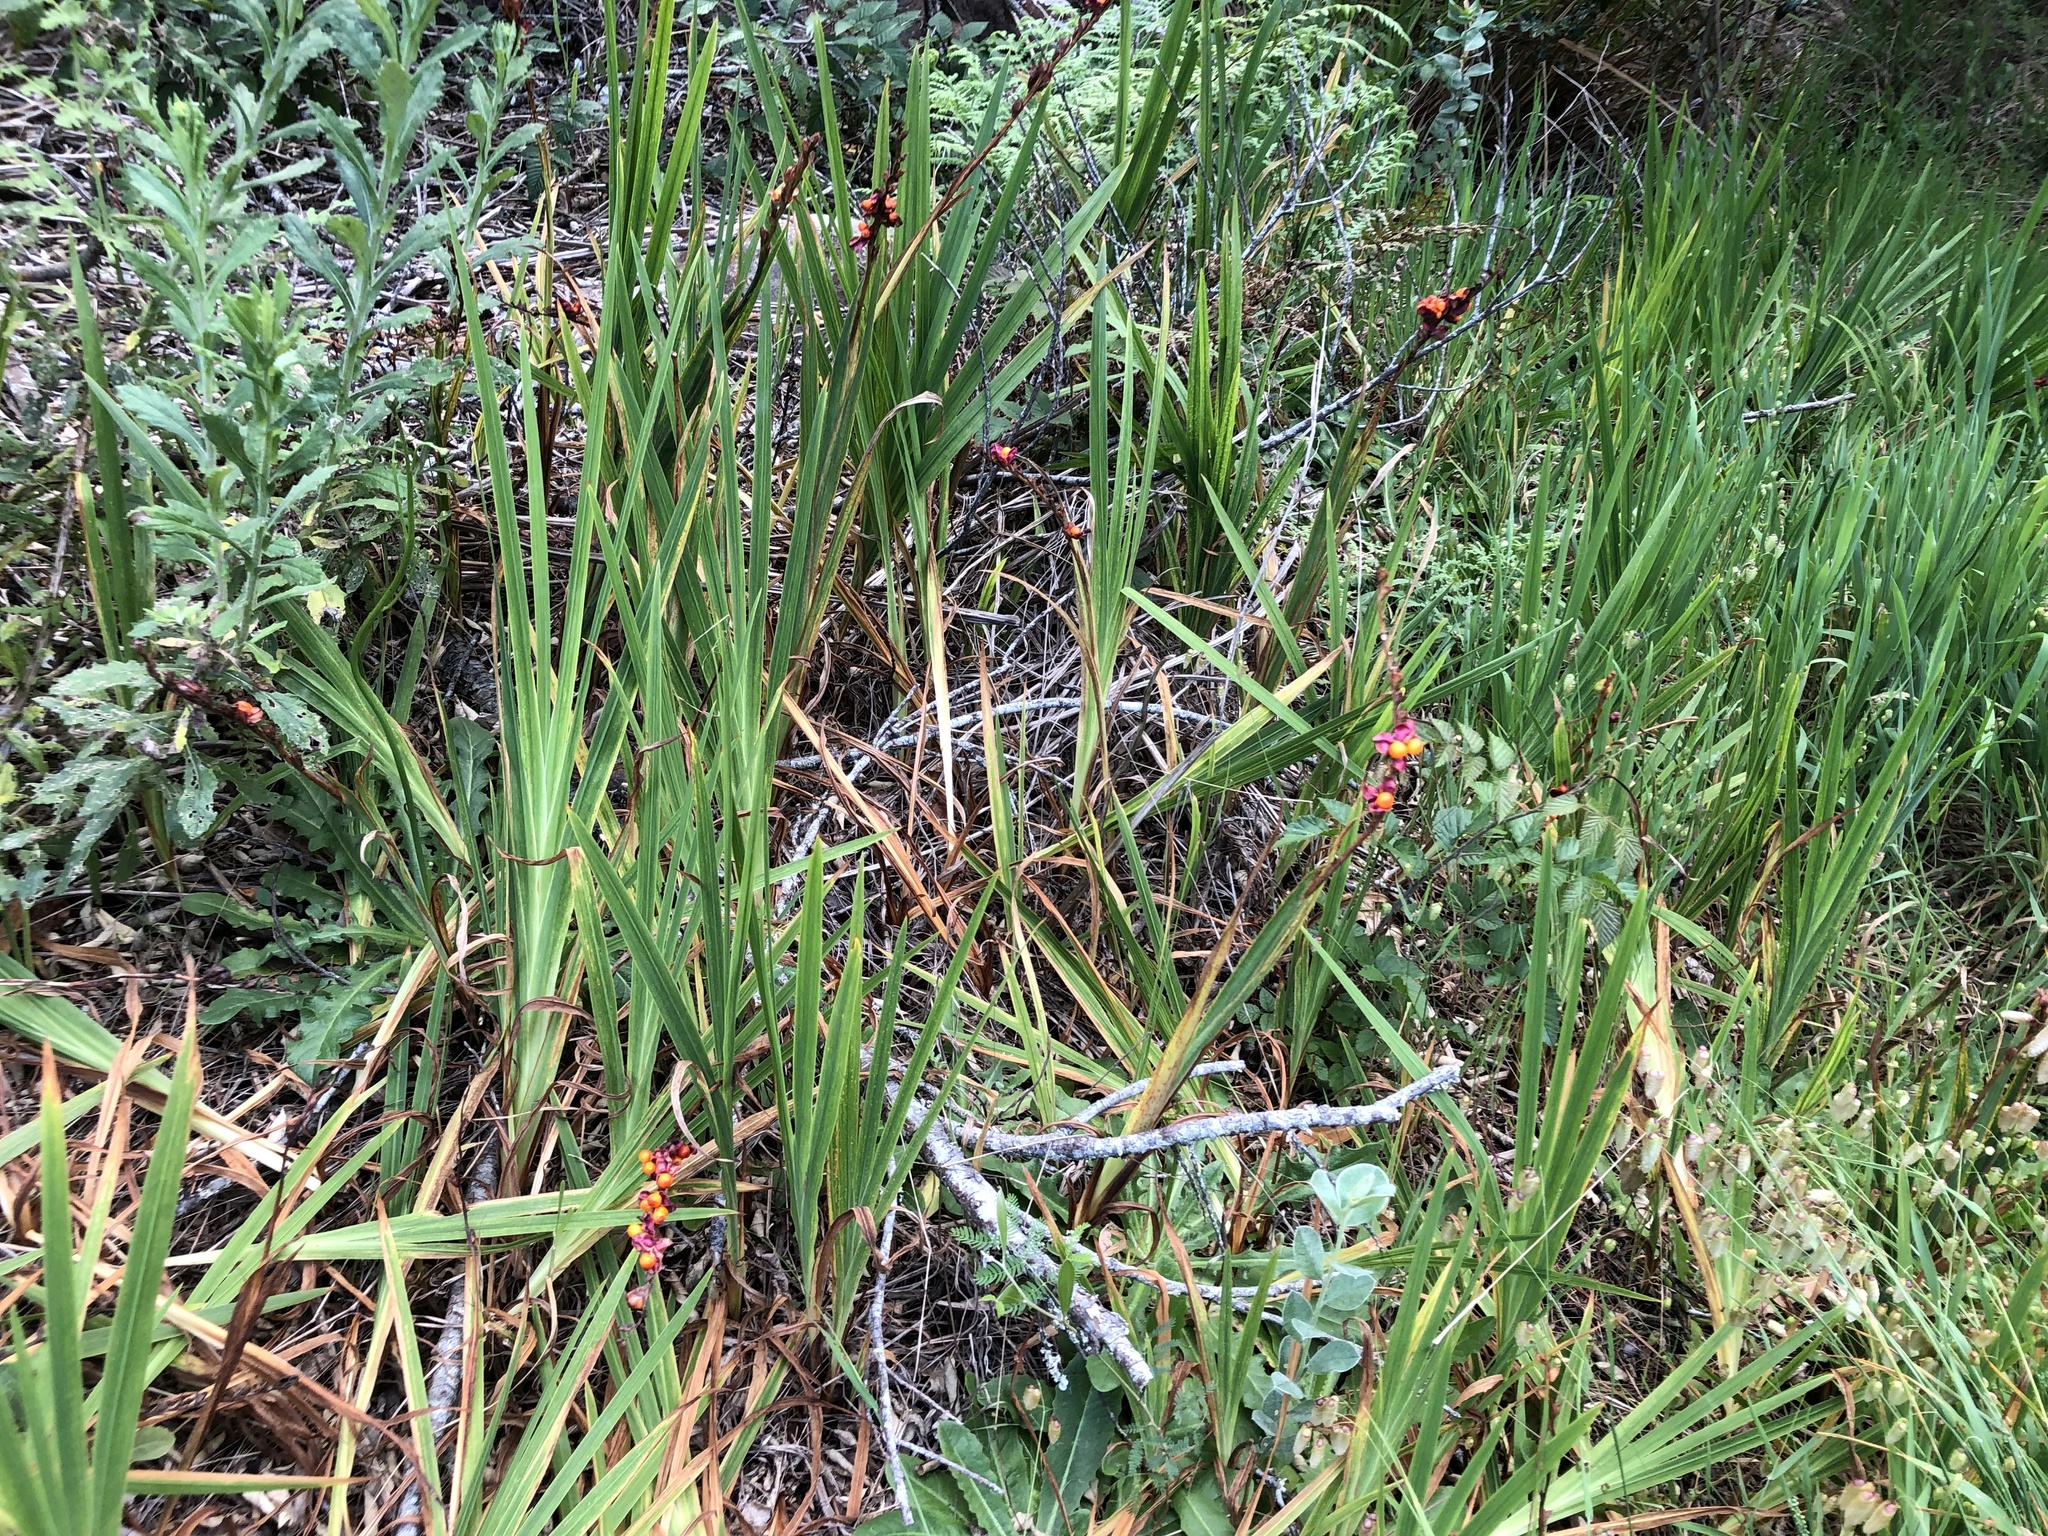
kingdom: Plantae
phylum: Tracheophyta
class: Liliopsida
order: Asparagales
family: Iridaceae
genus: Chasmanthe
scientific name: Chasmanthe aethiopica
